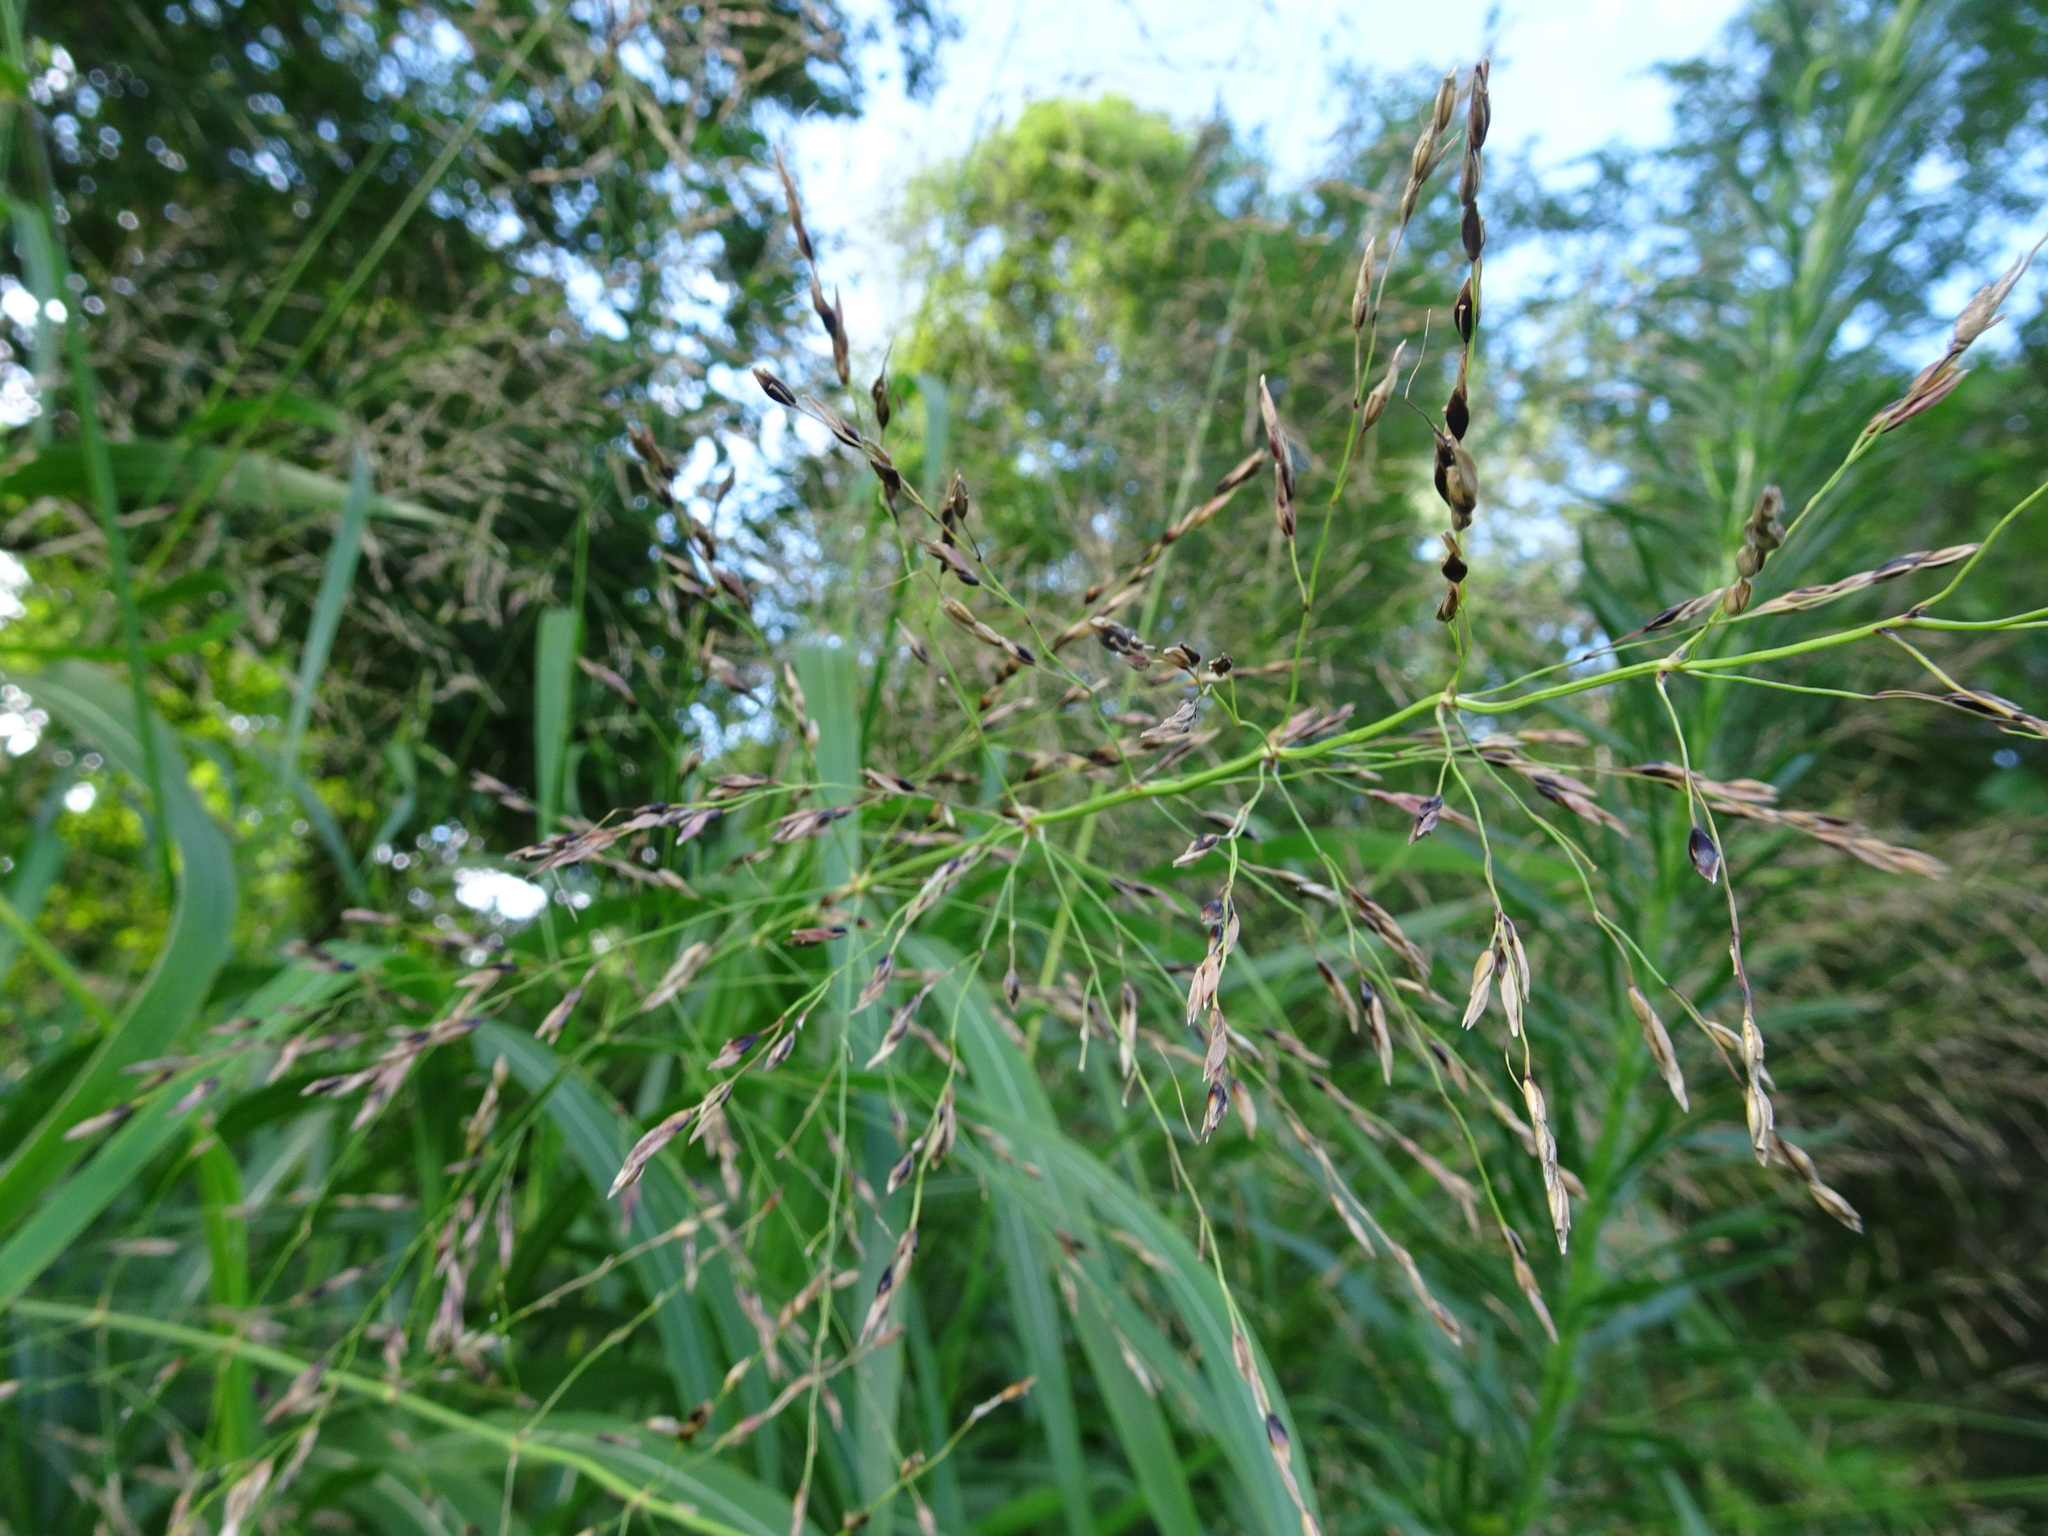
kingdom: Plantae
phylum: Tracheophyta
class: Liliopsida
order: Poales
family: Poaceae
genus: Sorghum
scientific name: Sorghum halepense
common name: Johnson-grass
